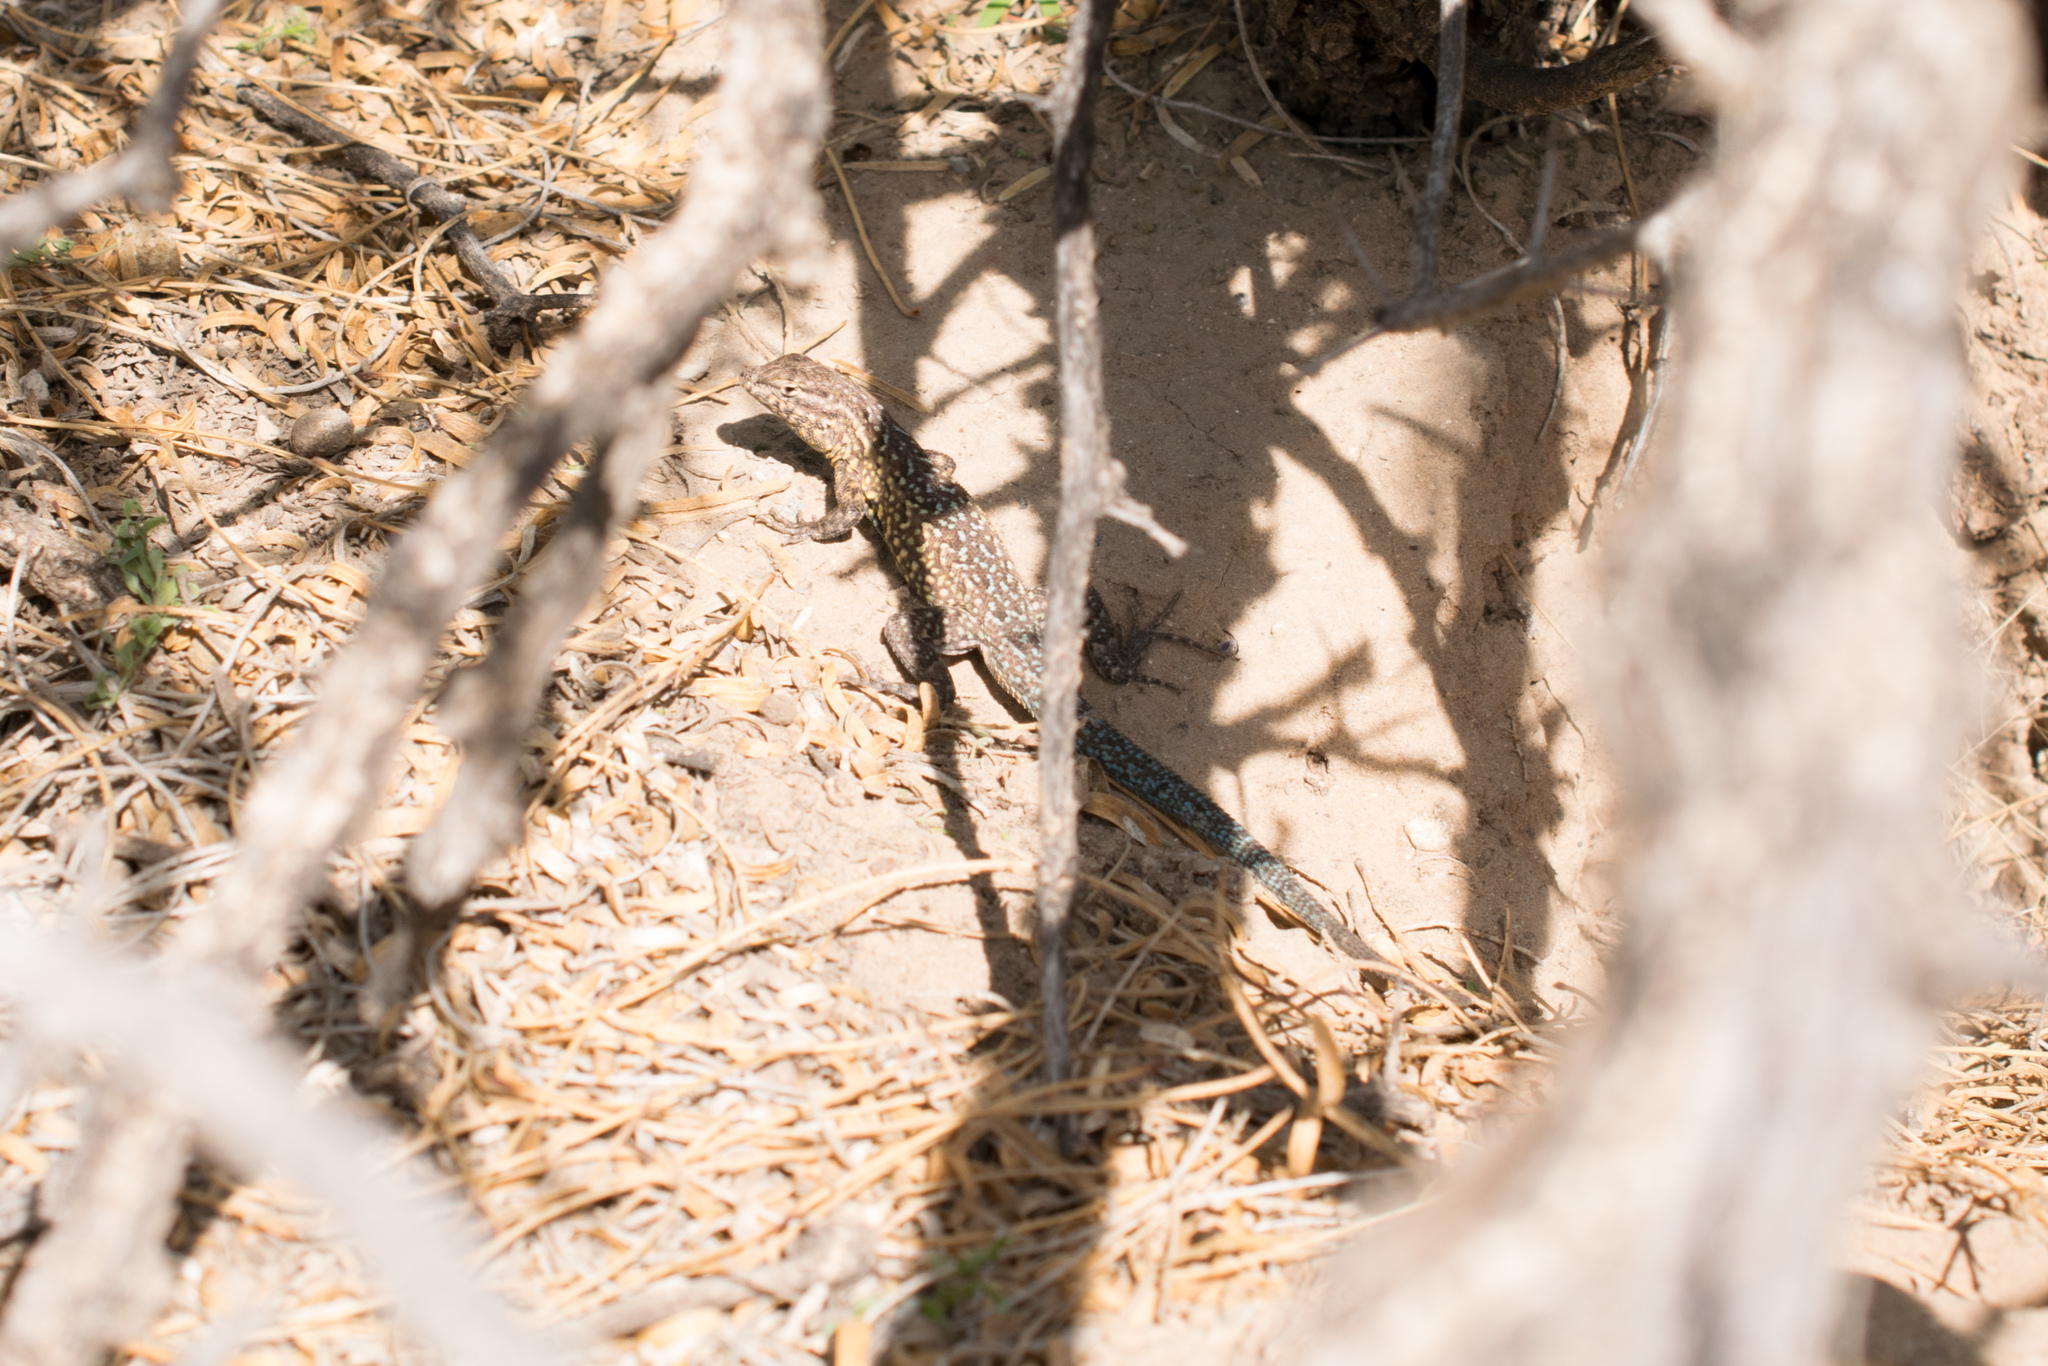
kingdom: Animalia
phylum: Chordata
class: Squamata
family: Phrynosomatidae
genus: Uta
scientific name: Uta stansburiana
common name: Side-blotched lizard
